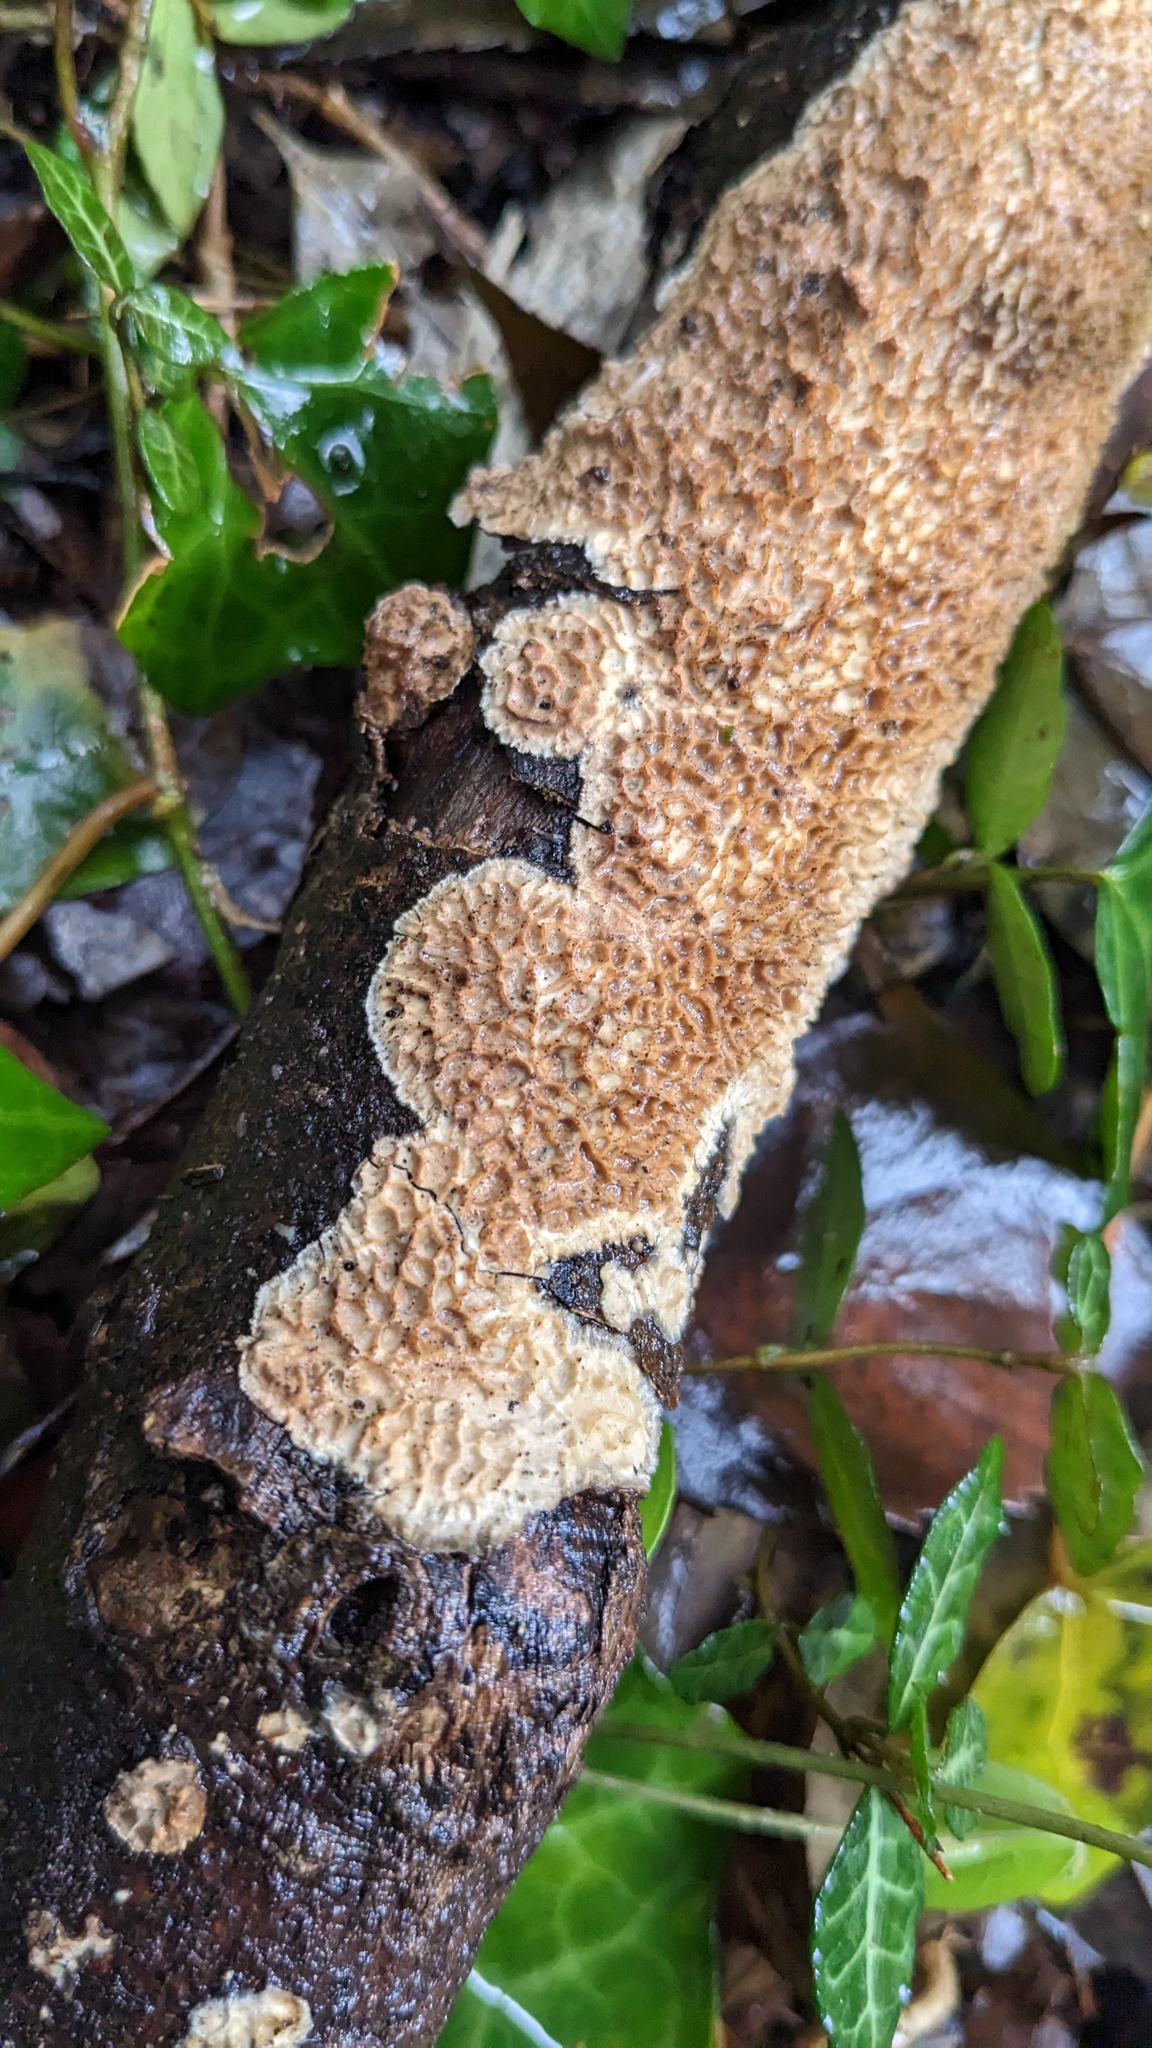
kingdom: Fungi
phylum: Basidiomycota
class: Agaricomycetes
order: Polyporales
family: Polyporaceae
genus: Lopharia
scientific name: Lopharia cinerascens
